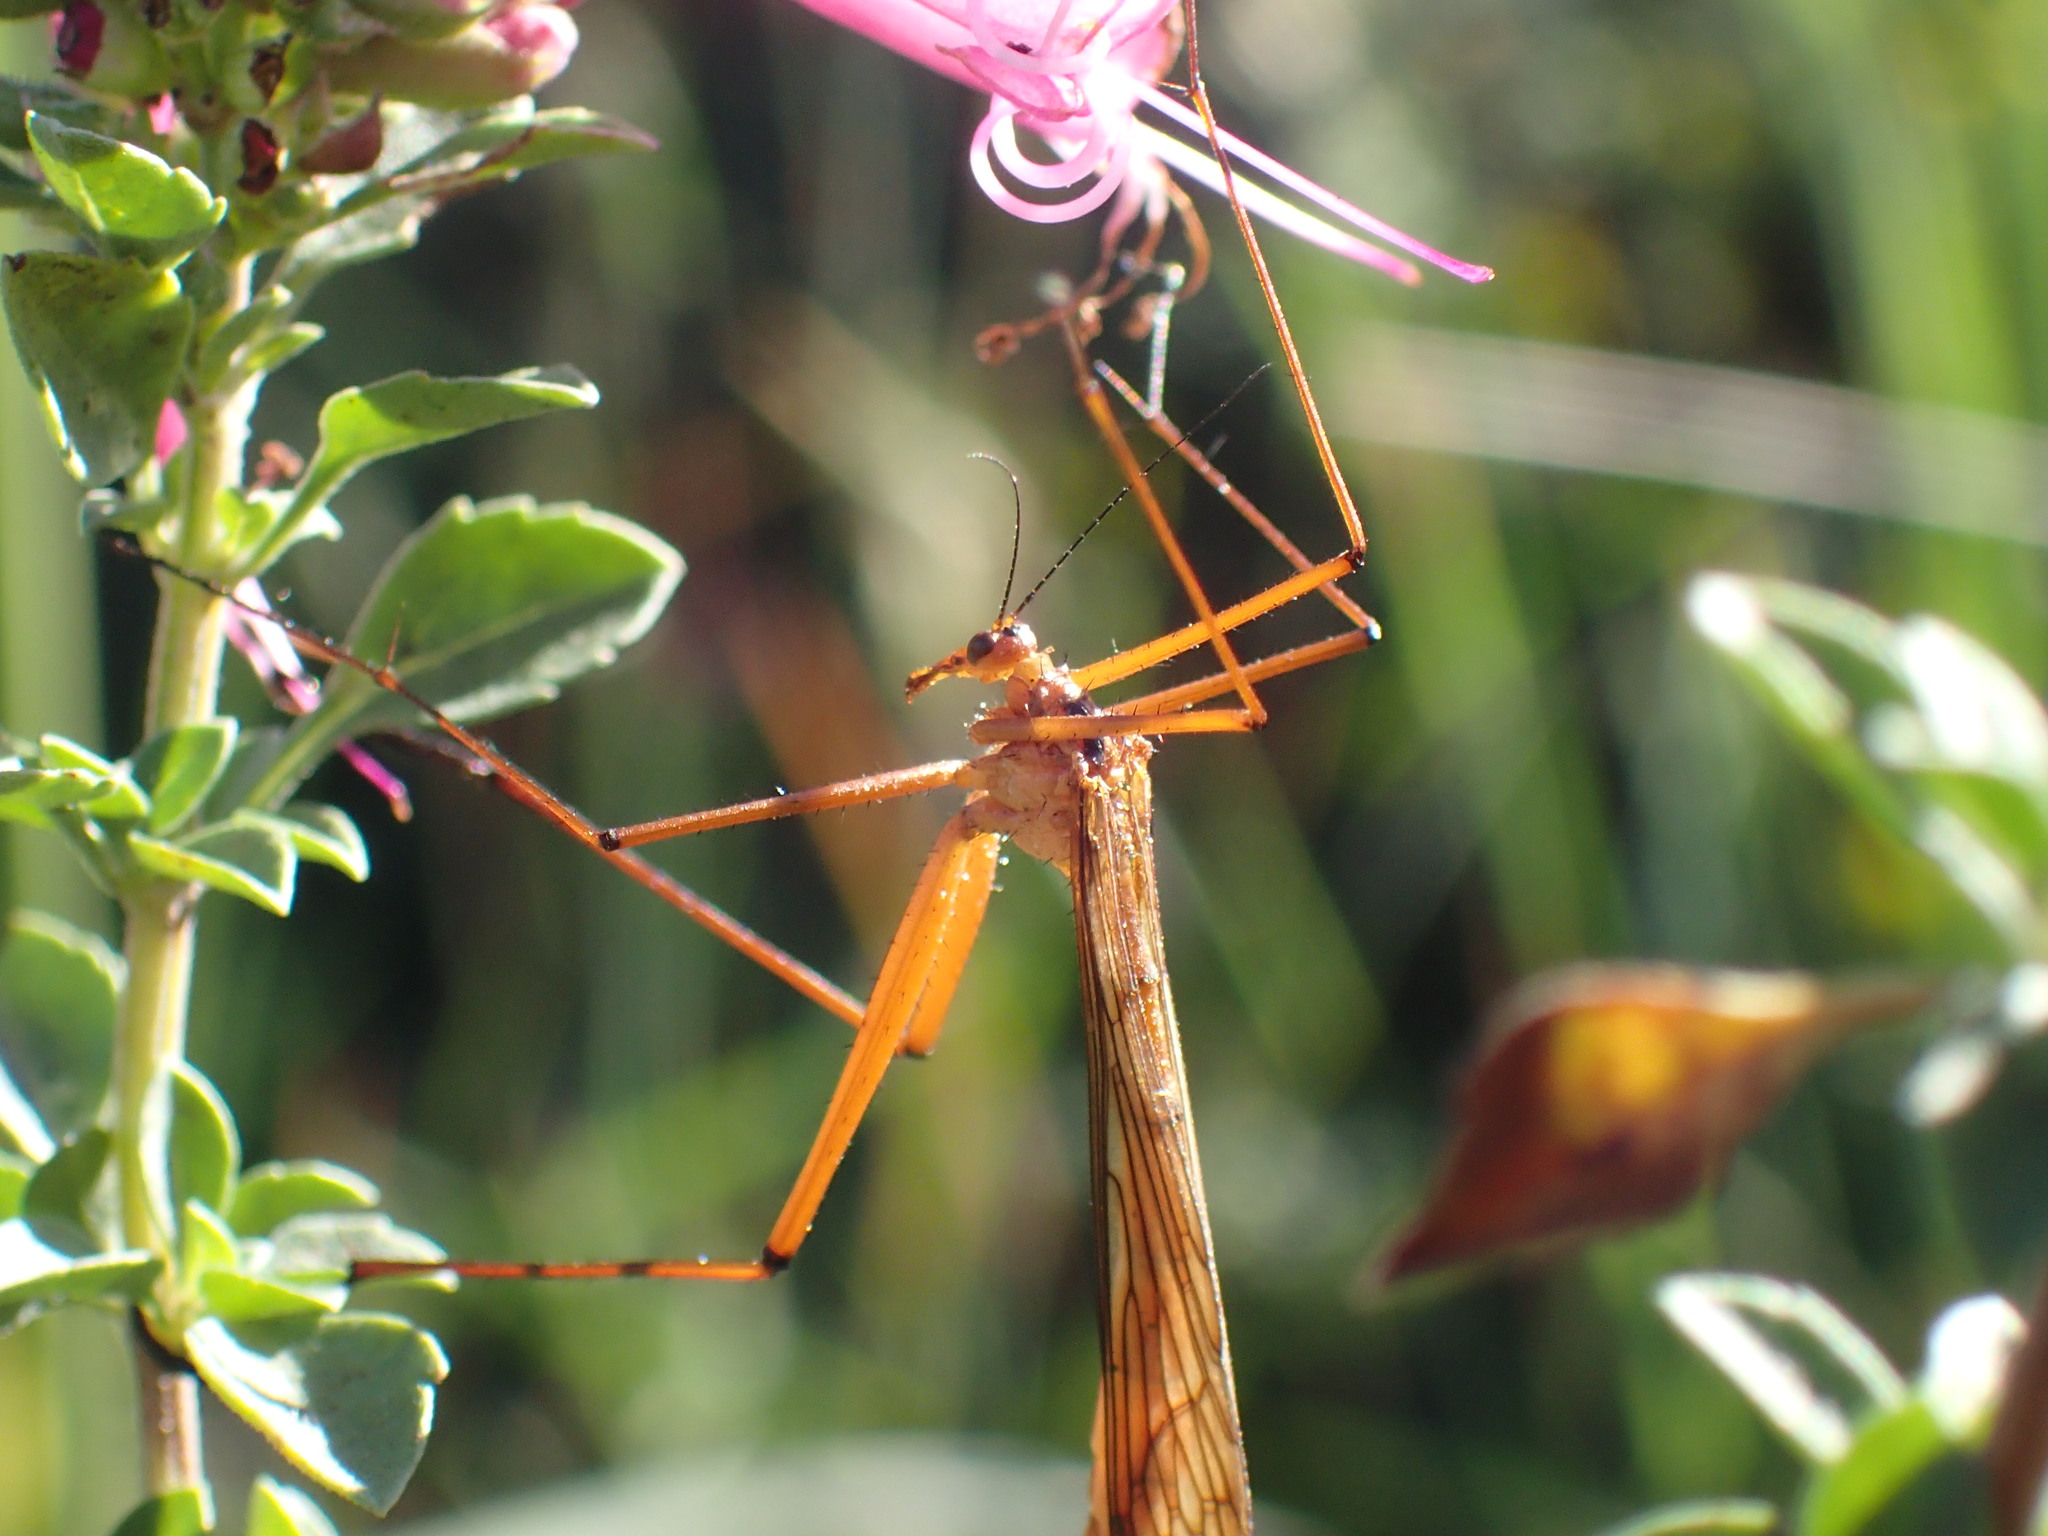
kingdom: Animalia
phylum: Arthropoda
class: Insecta
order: Mecoptera
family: Bittacidae
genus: Bittacus
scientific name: Bittacus walkeri
